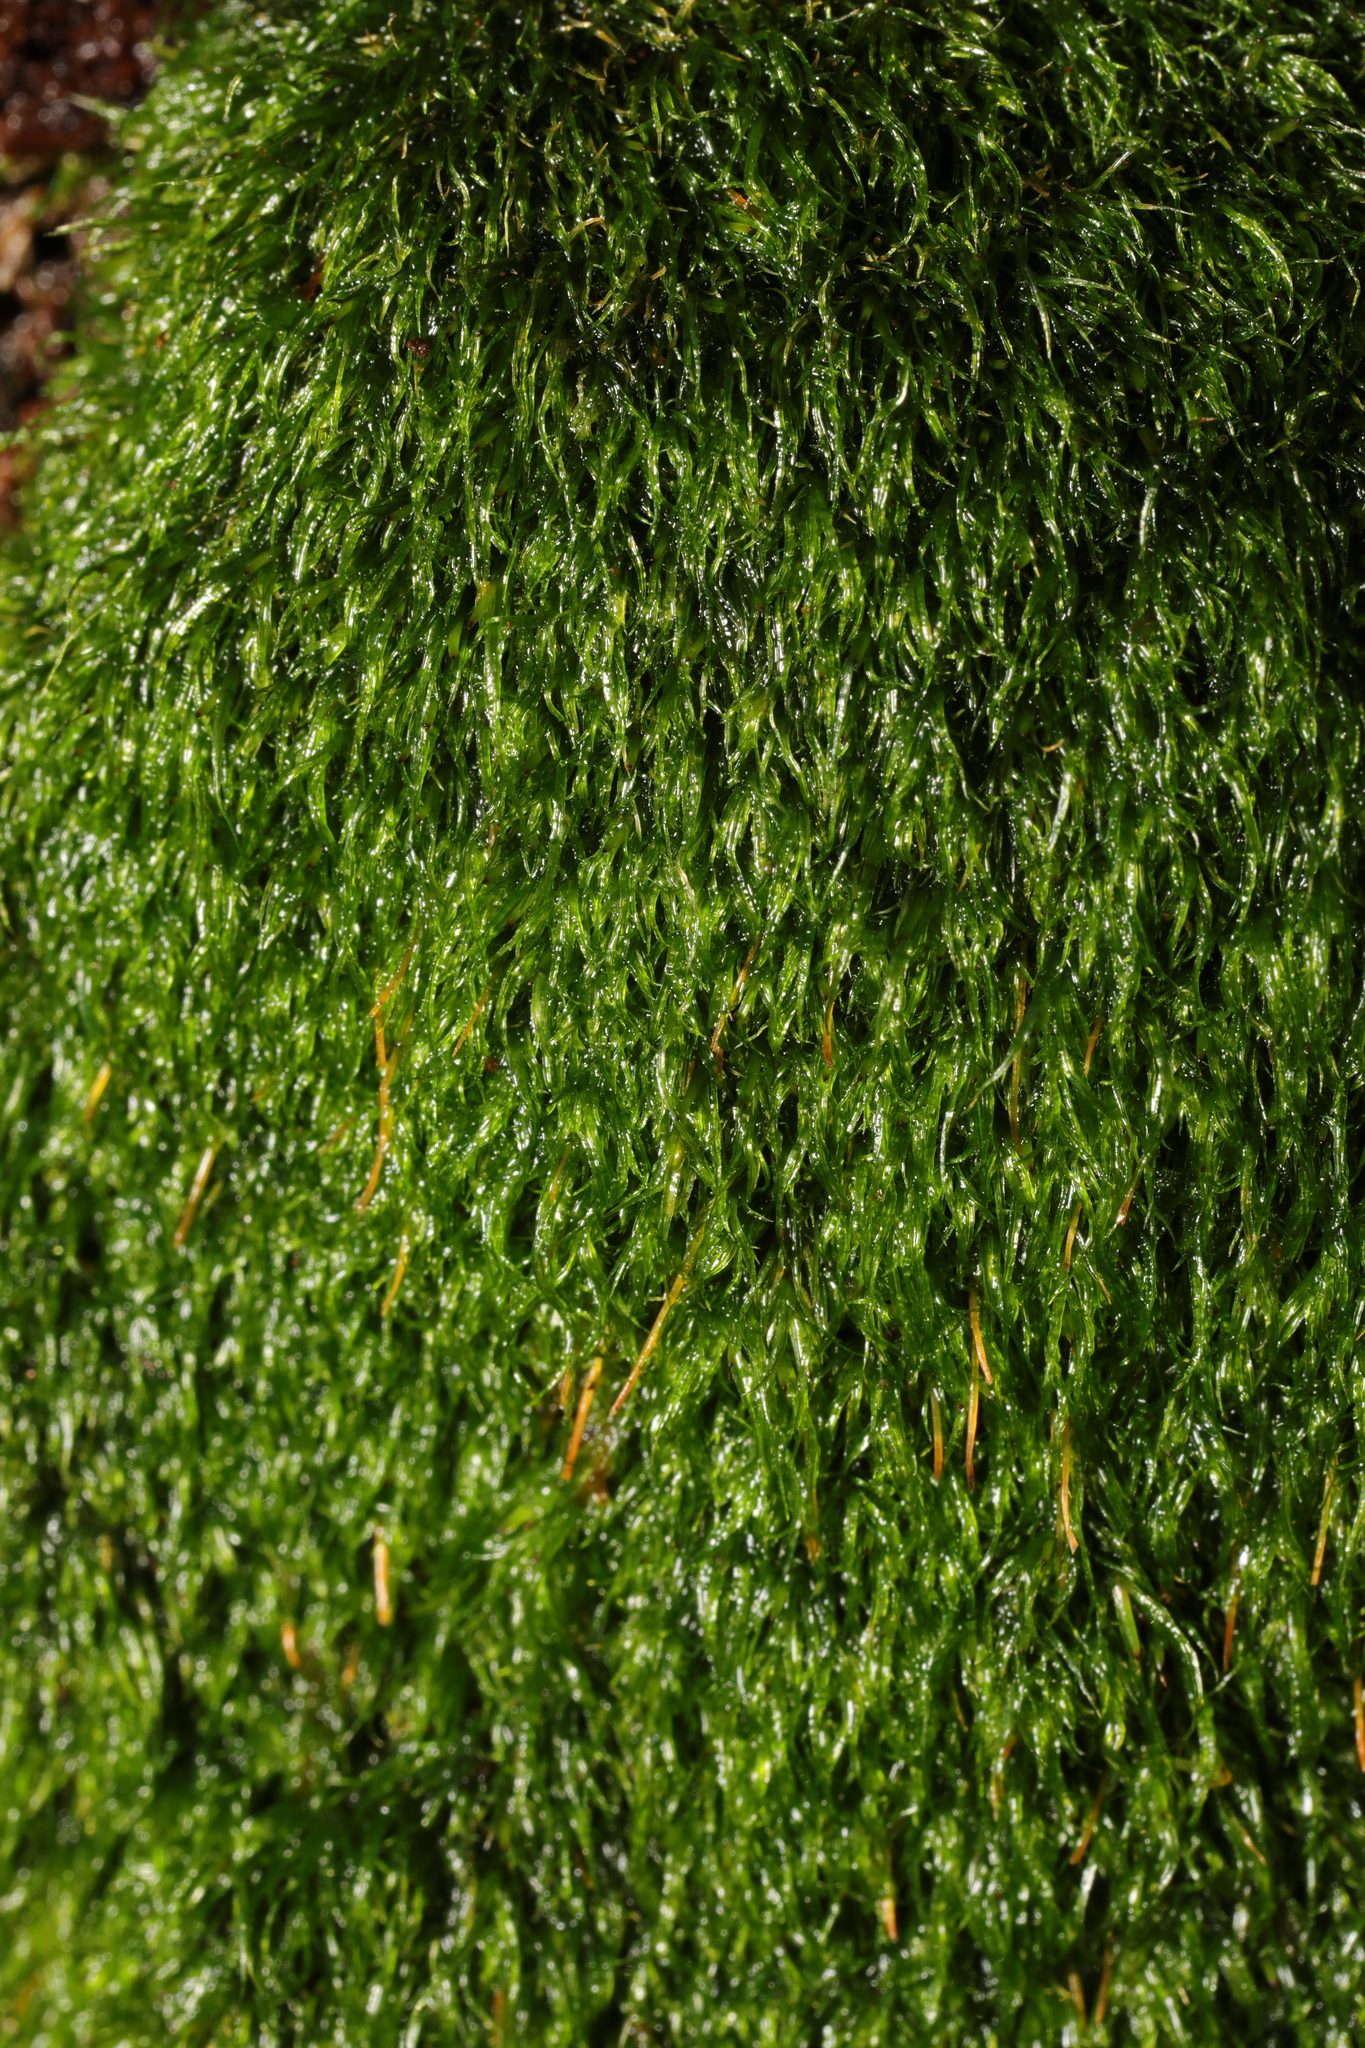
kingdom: Plantae
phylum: Bryophyta
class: Bryopsida
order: Orthodontiales
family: Orthodontiaceae
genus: Orthodontium
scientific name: Orthodontium lineare
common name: Cape thread-moss
